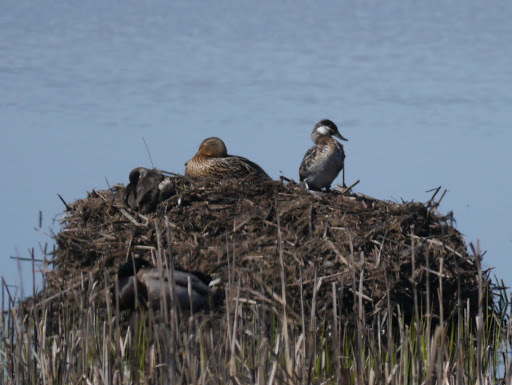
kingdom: Animalia
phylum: Chordata
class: Aves
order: Anseriformes
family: Anatidae
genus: Oxyura
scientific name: Oxyura jamaicensis
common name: Ruddy duck
